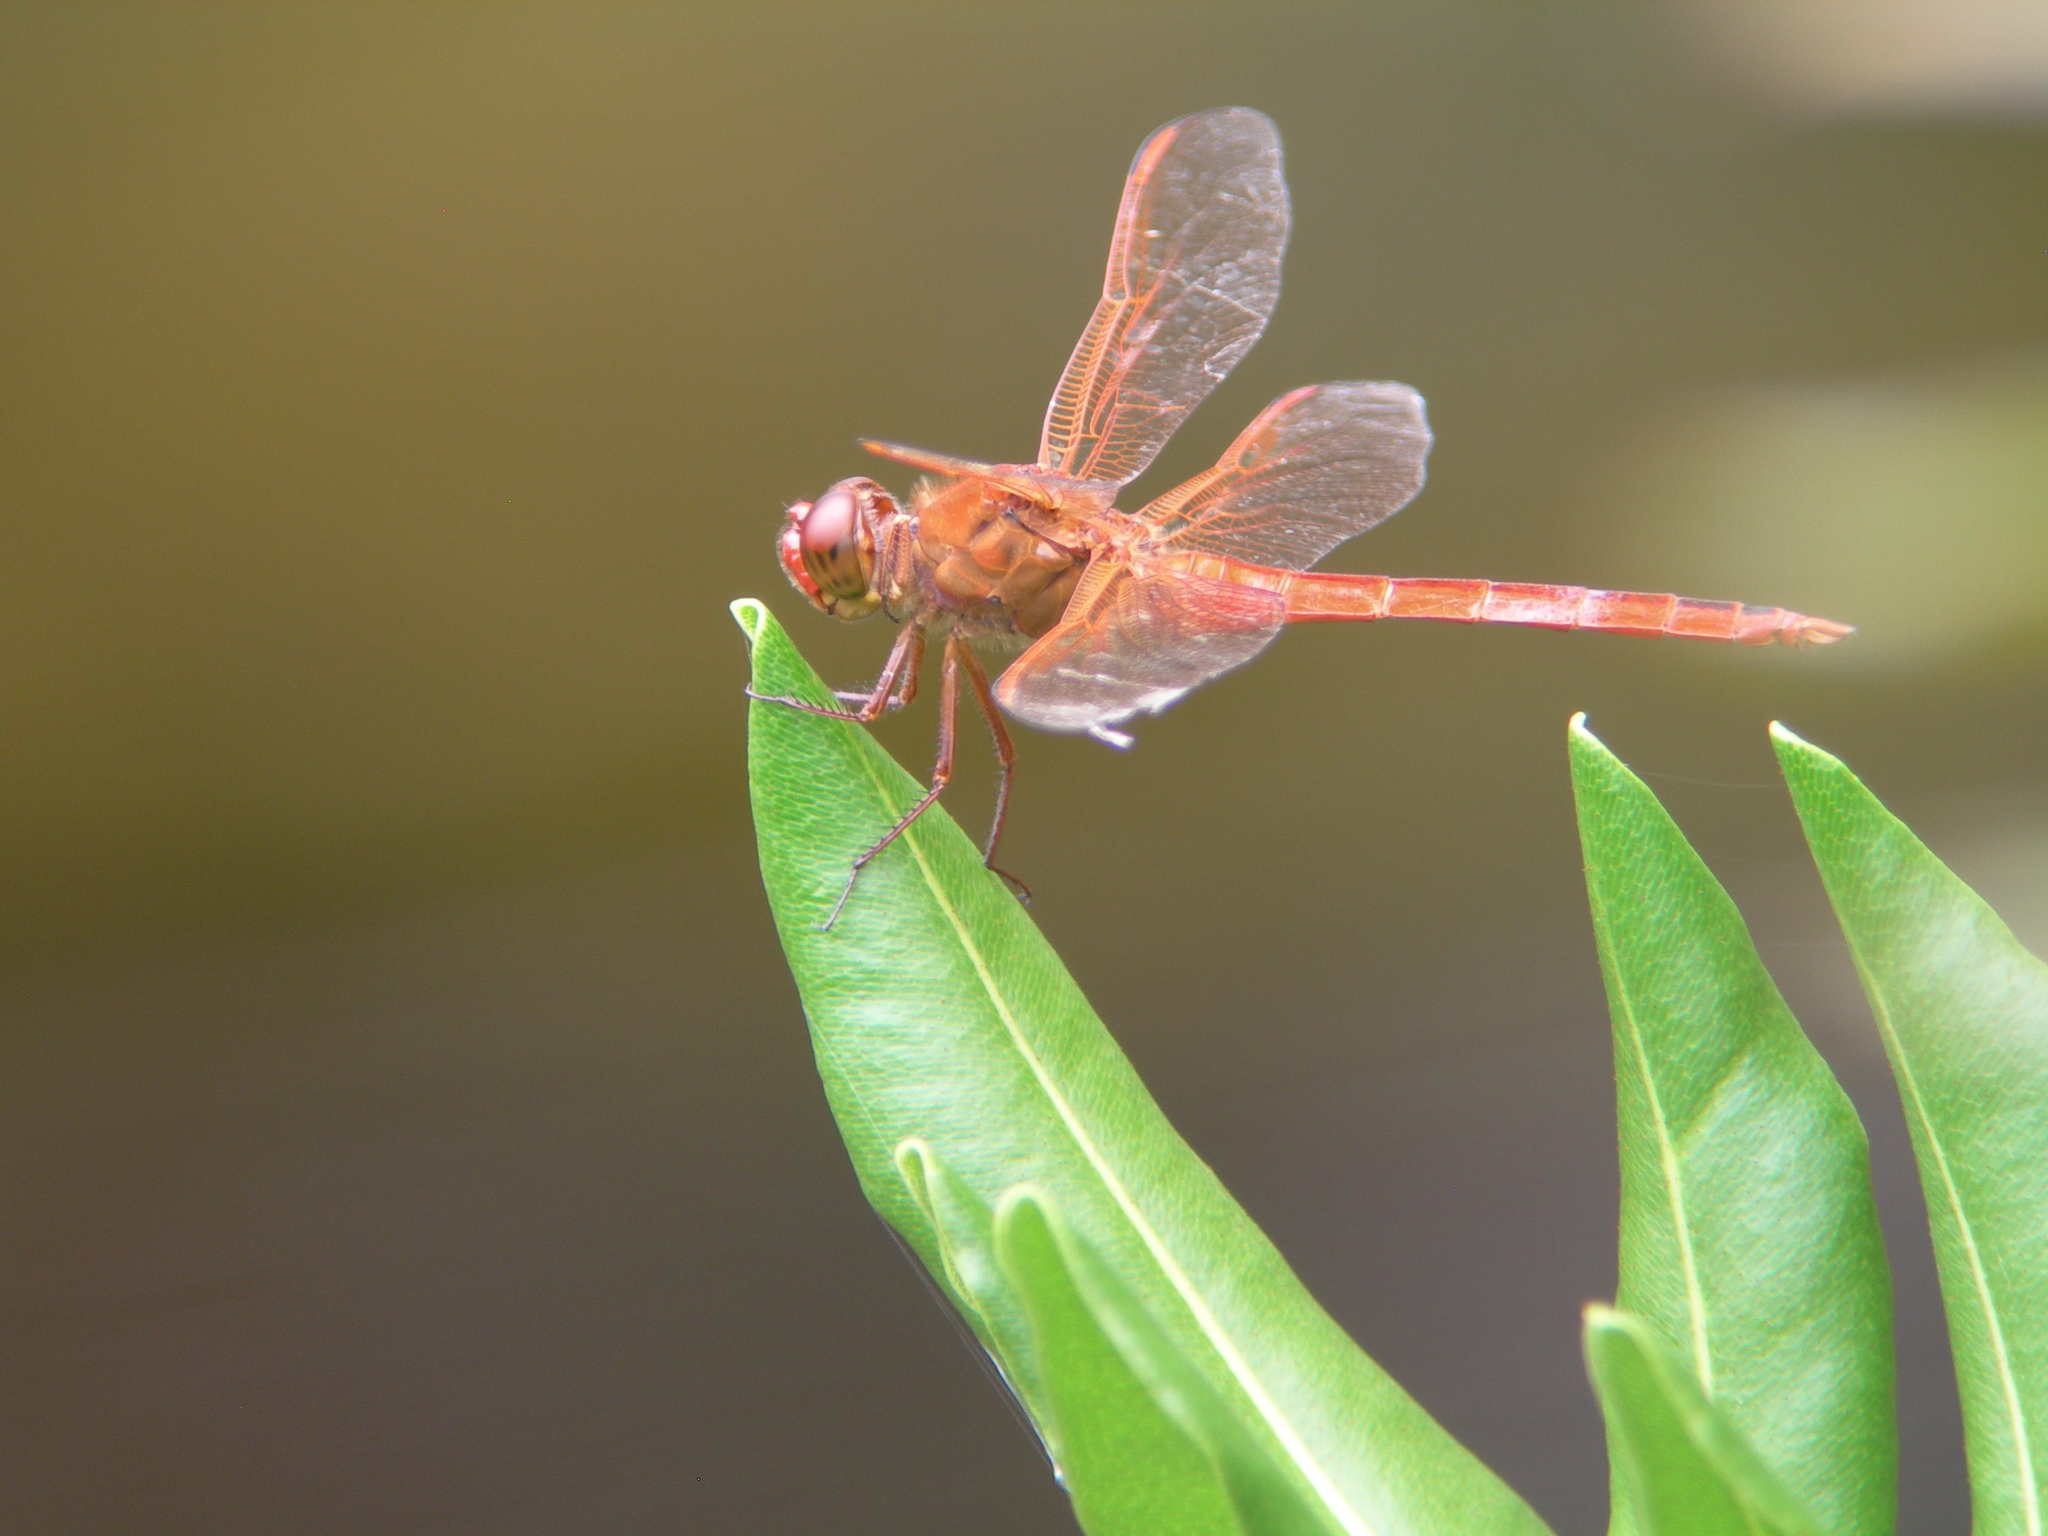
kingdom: Animalia
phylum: Arthropoda
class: Insecta
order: Odonata
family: Libellulidae
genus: Libellula
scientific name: Libellula needhami
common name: Needham's skimmer
